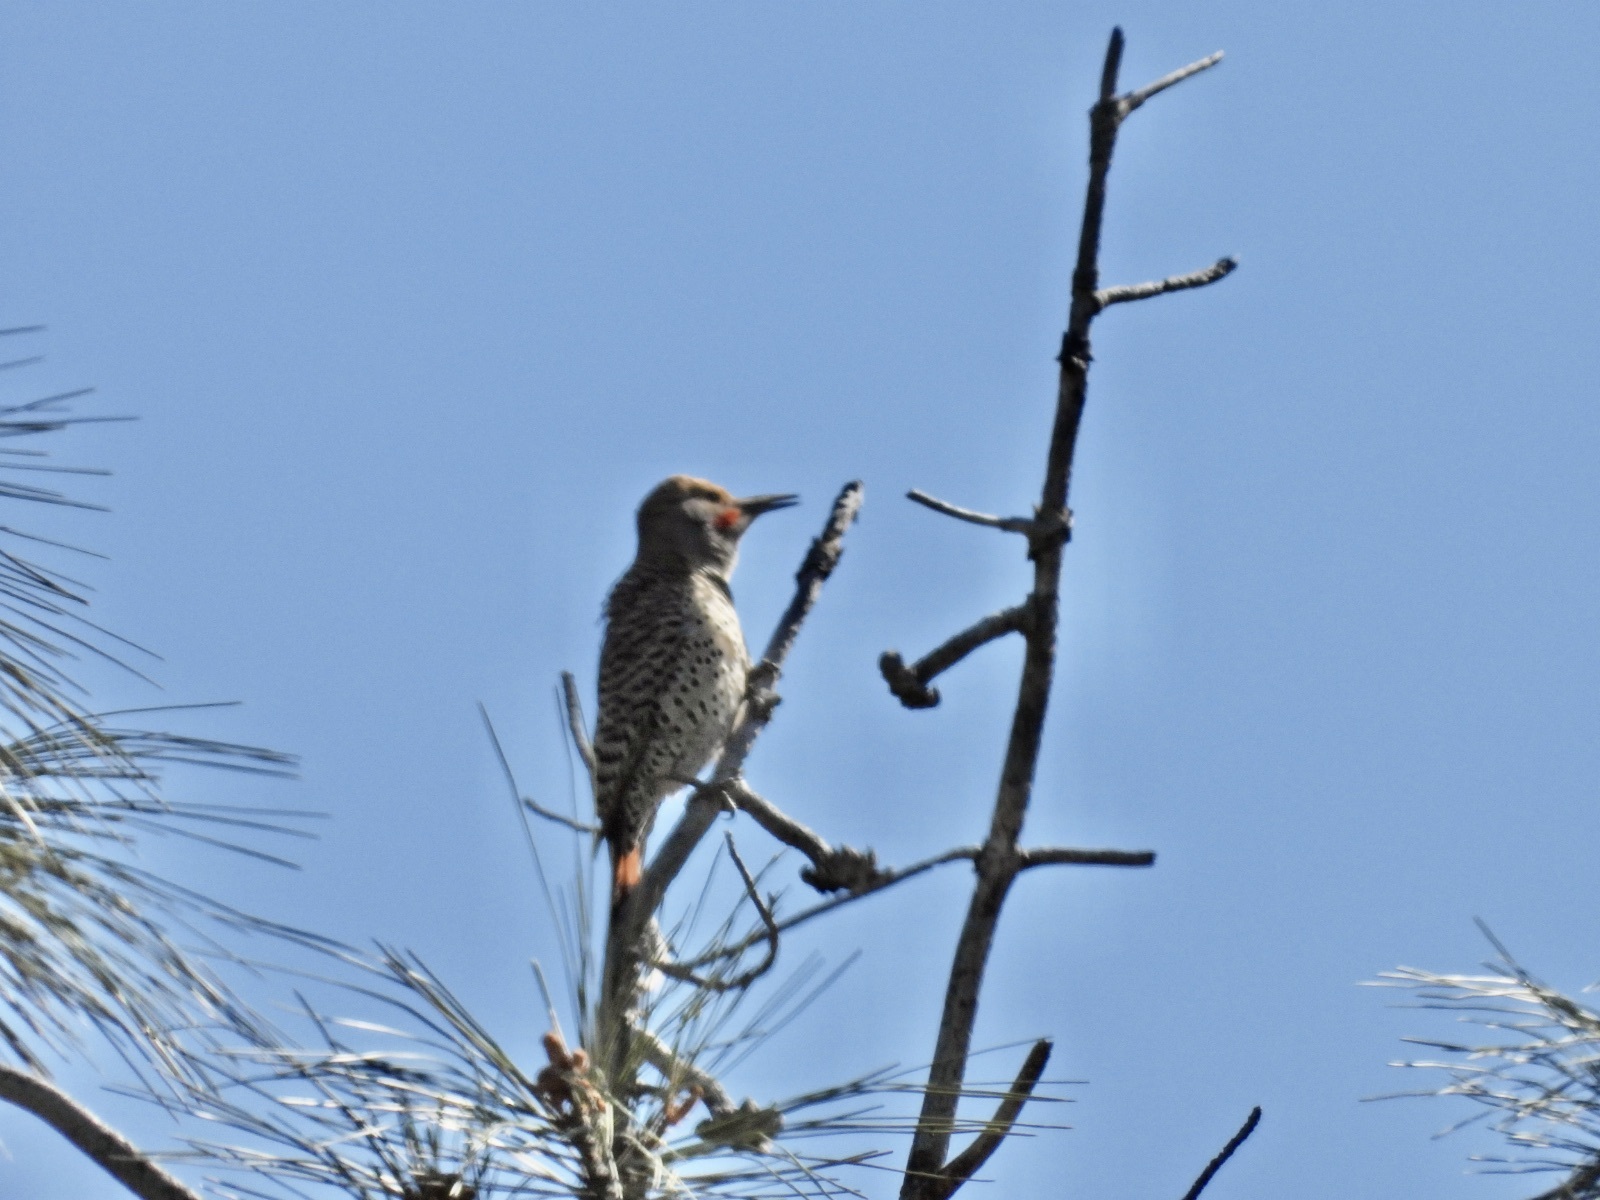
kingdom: Animalia
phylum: Chordata
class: Aves
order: Piciformes
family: Picidae
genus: Colaptes
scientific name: Colaptes auratus
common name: Northern flicker
